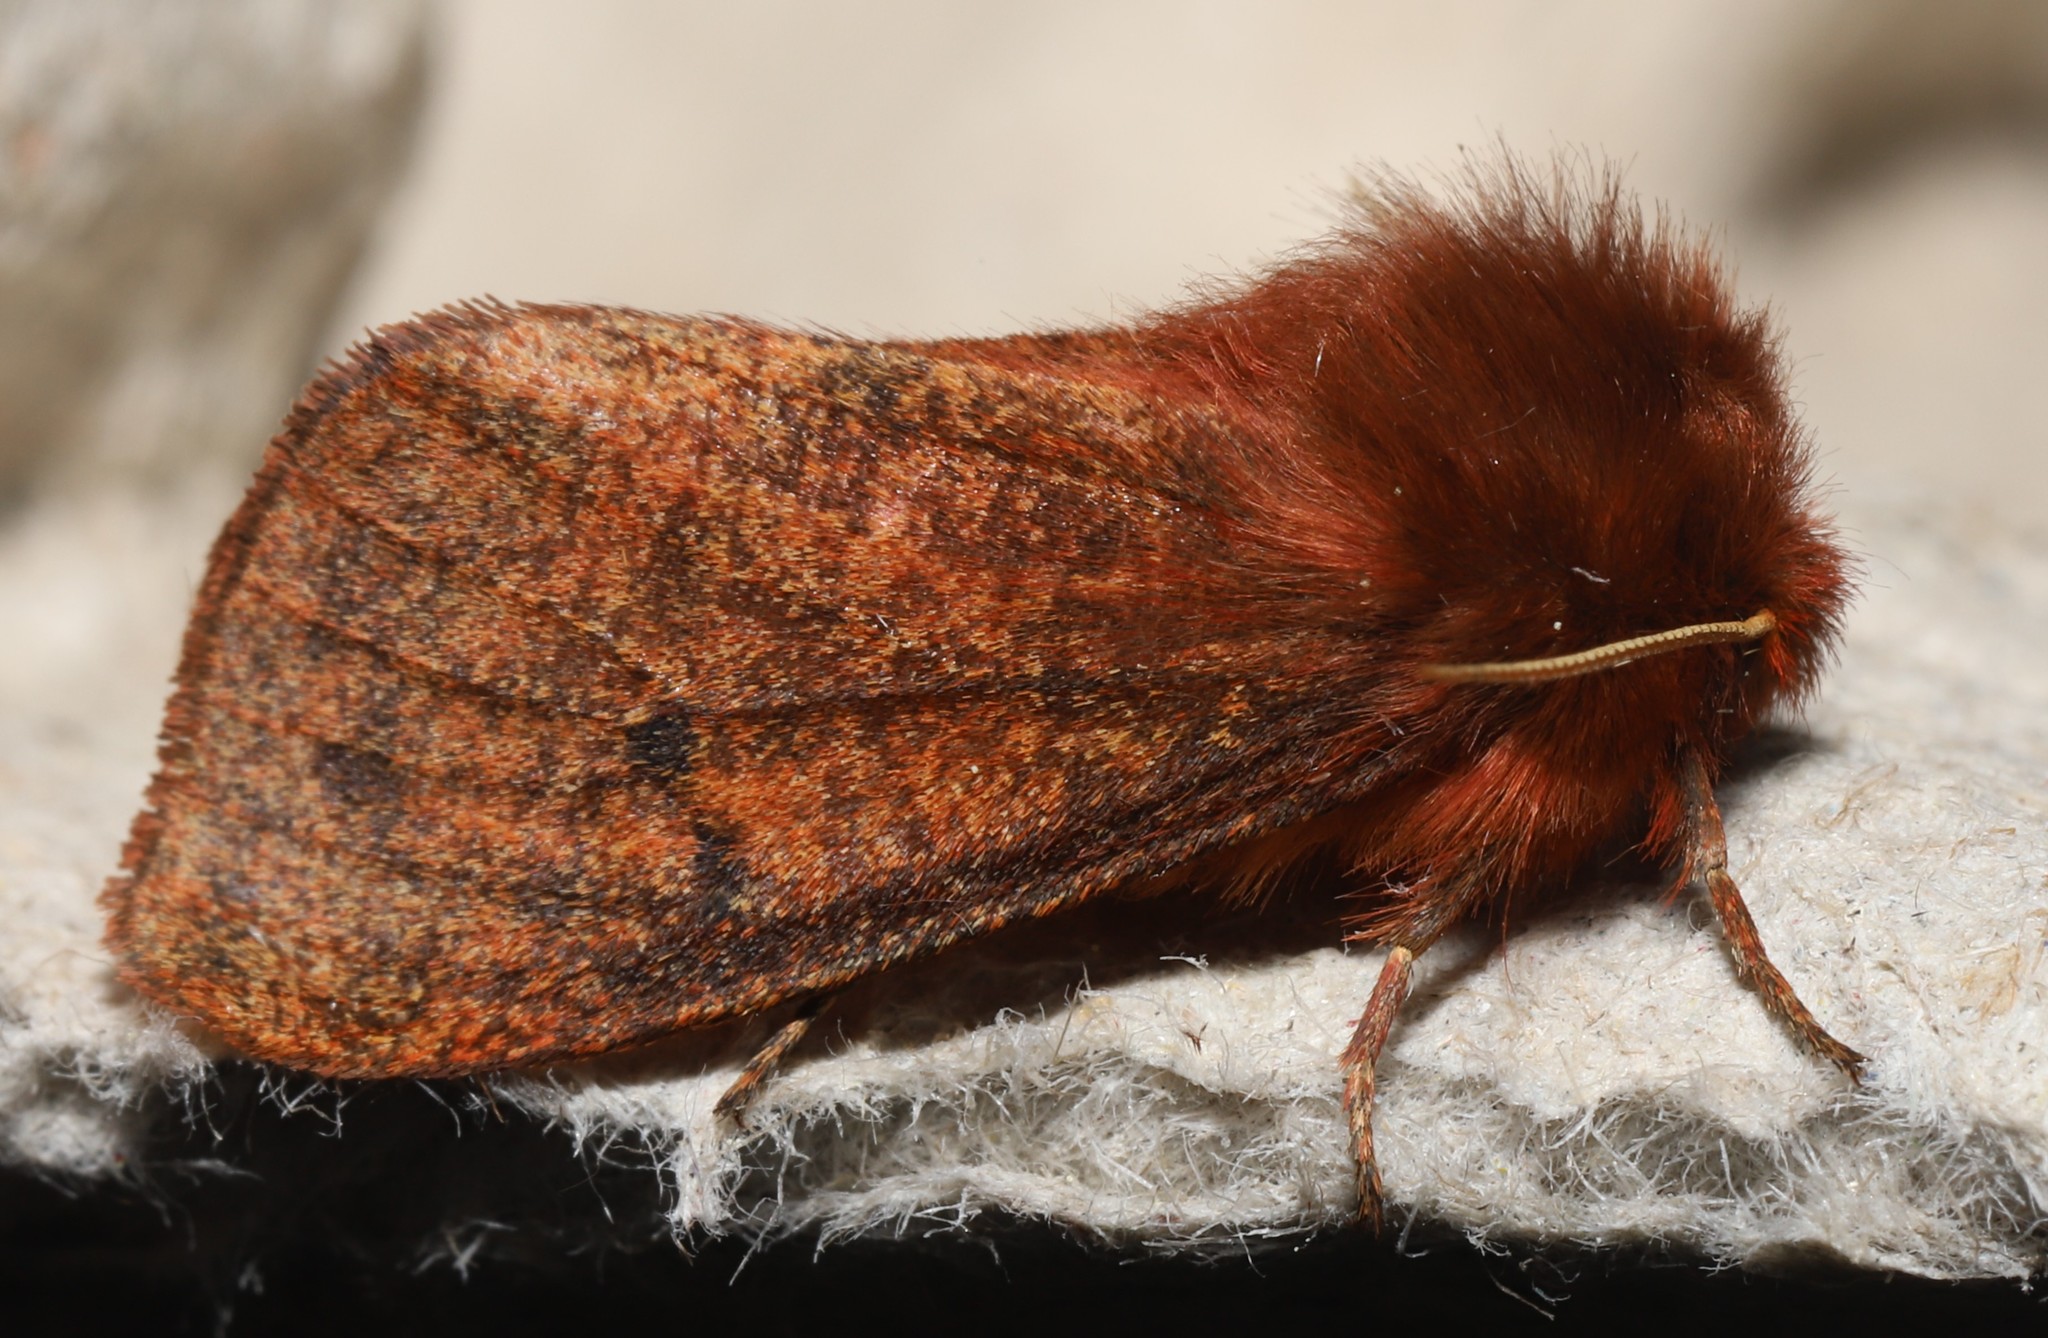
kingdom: Animalia
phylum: Arthropoda
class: Insecta
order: Lepidoptera
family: Erebidae
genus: Phragmatobia
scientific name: Phragmatobia assimilans
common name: Large ruby tiger moth
